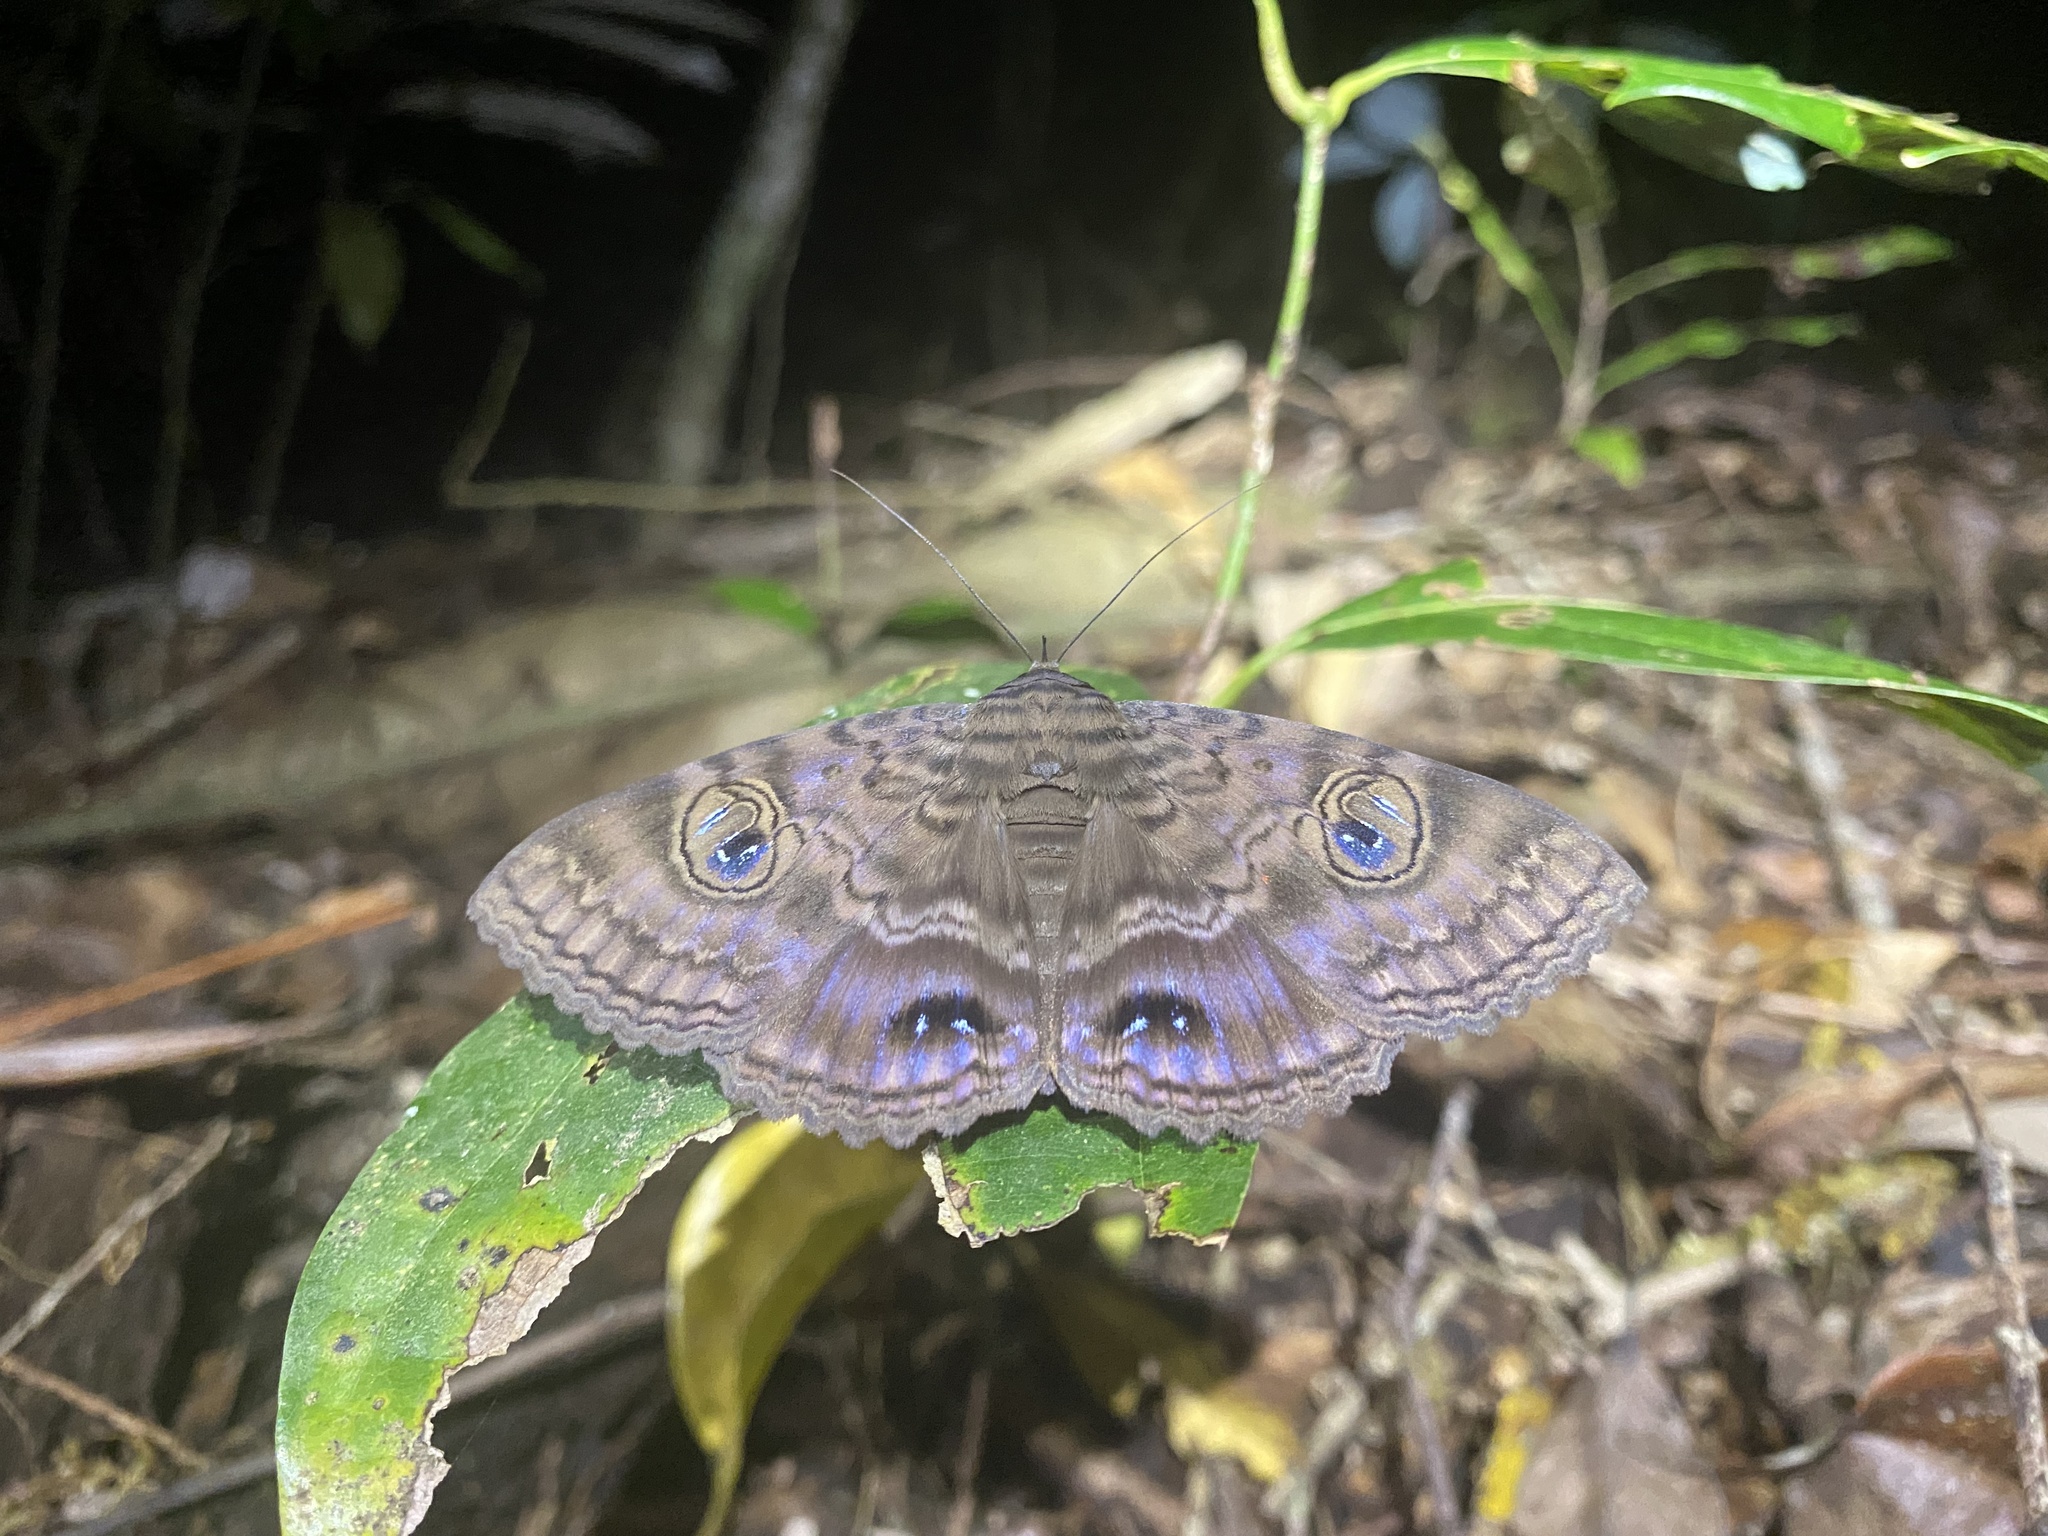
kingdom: Animalia
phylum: Arthropoda
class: Insecta
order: Lepidoptera
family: Erebidae
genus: Speiredonia
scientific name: Speiredonia spectans
